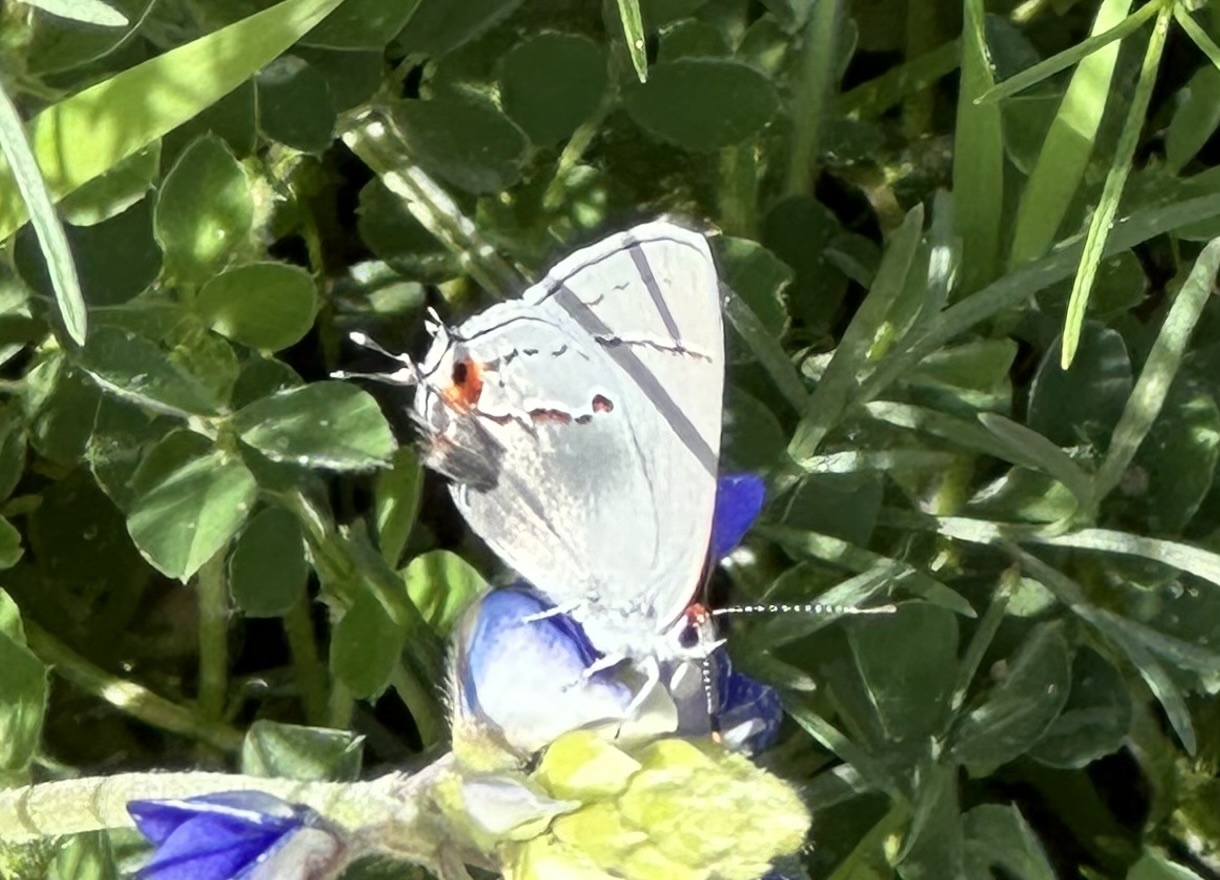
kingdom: Animalia
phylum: Arthropoda
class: Insecta
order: Lepidoptera
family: Lycaenidae
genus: Strymon
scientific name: Strymon melinus
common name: Gray hairstreak
